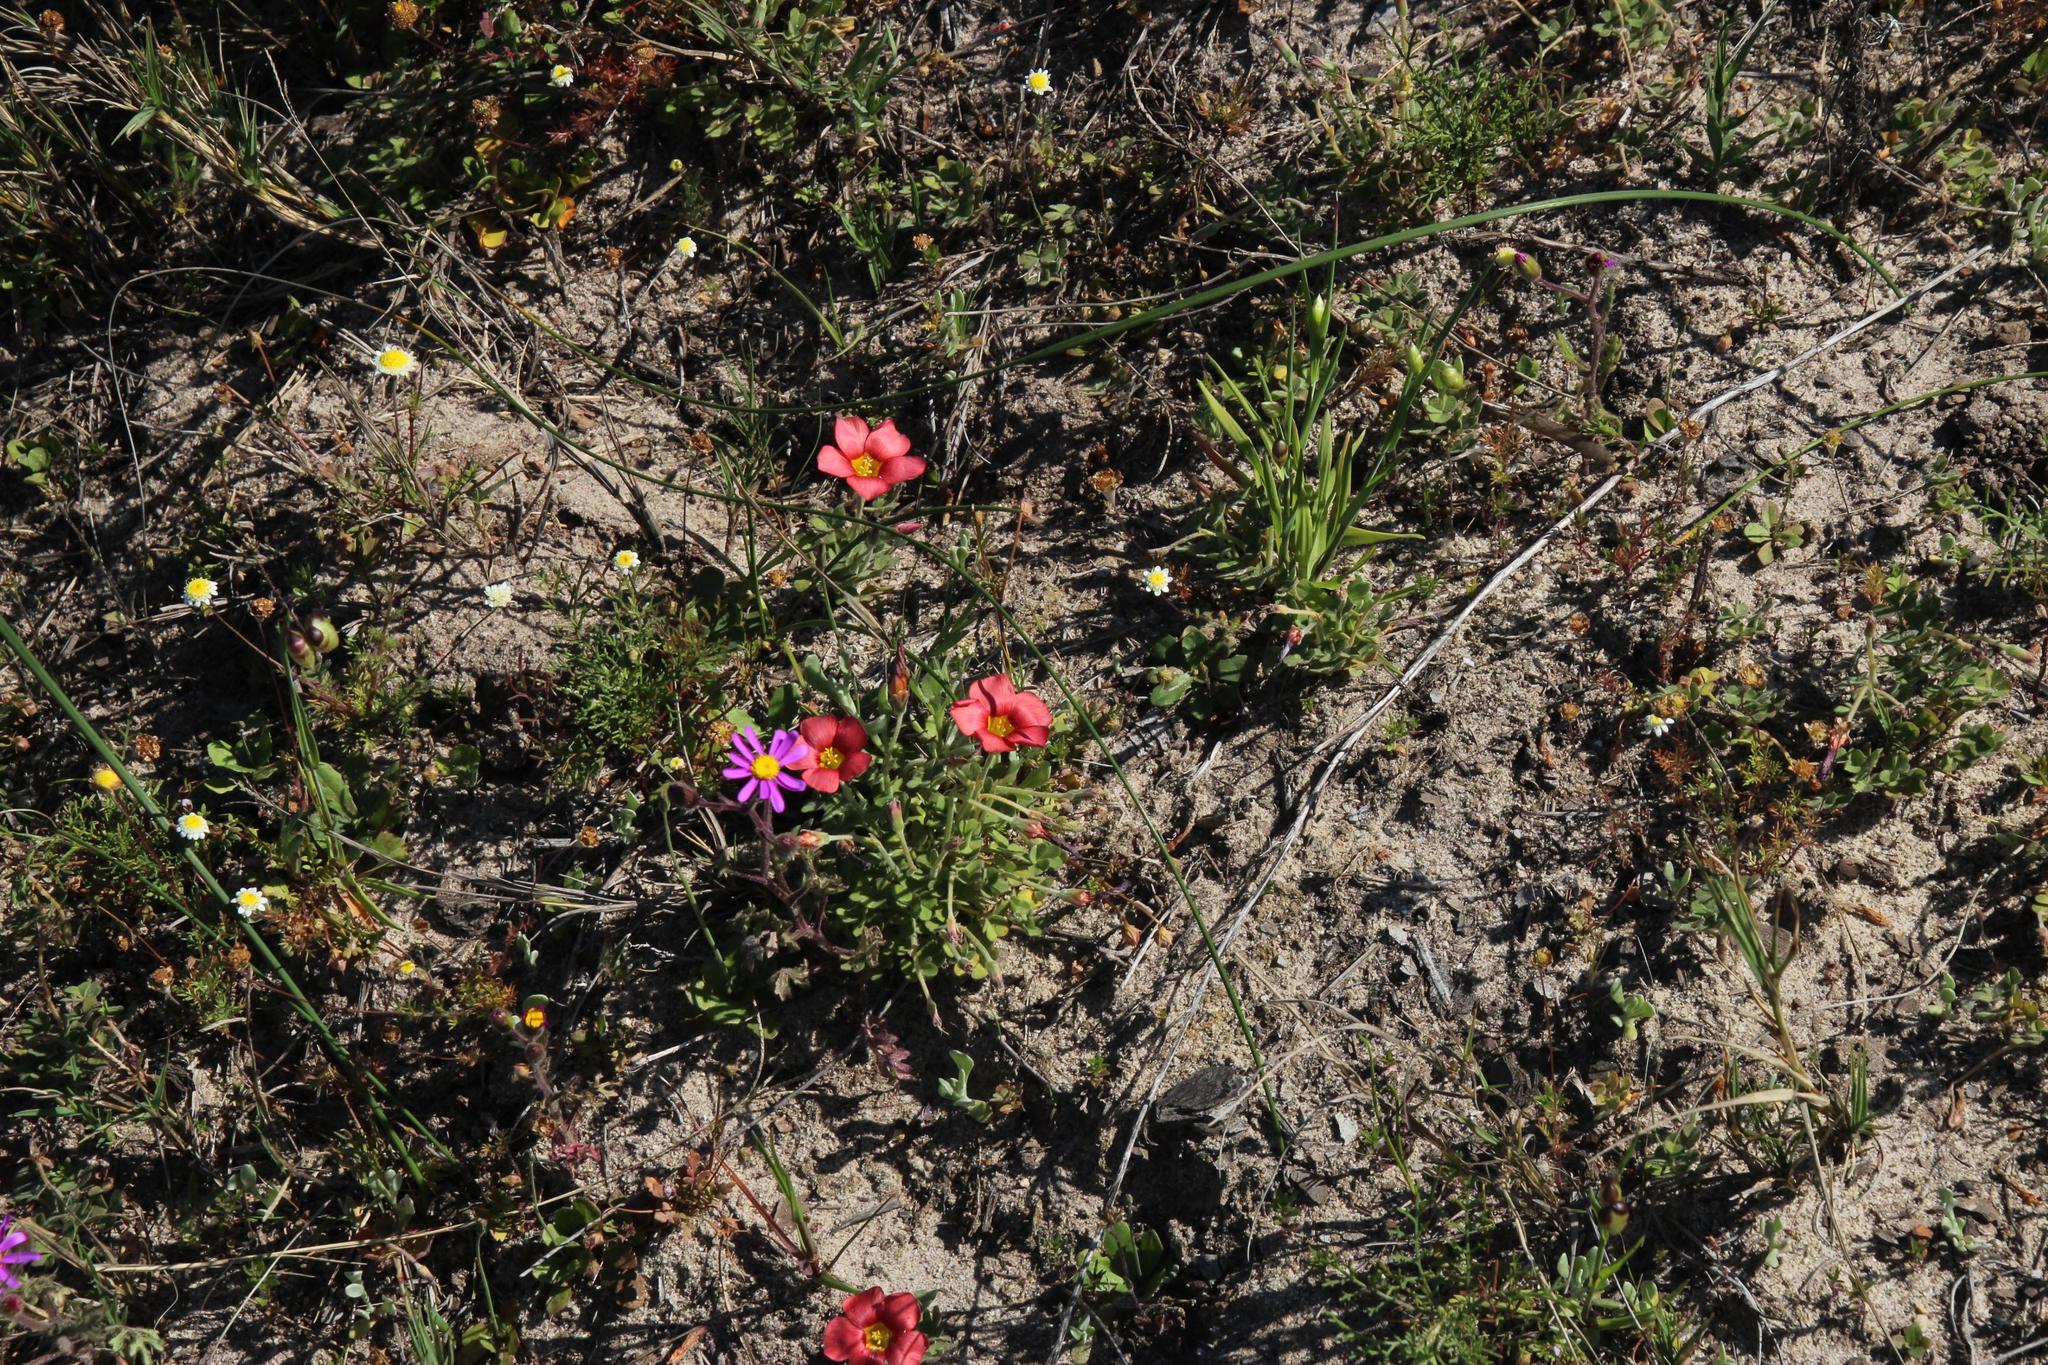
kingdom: Plantae
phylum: Tracheophyta
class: Magnoliopsida
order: Oxalidales
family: Oxalidaceae
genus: Oxalis
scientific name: Oxalis obtusa
